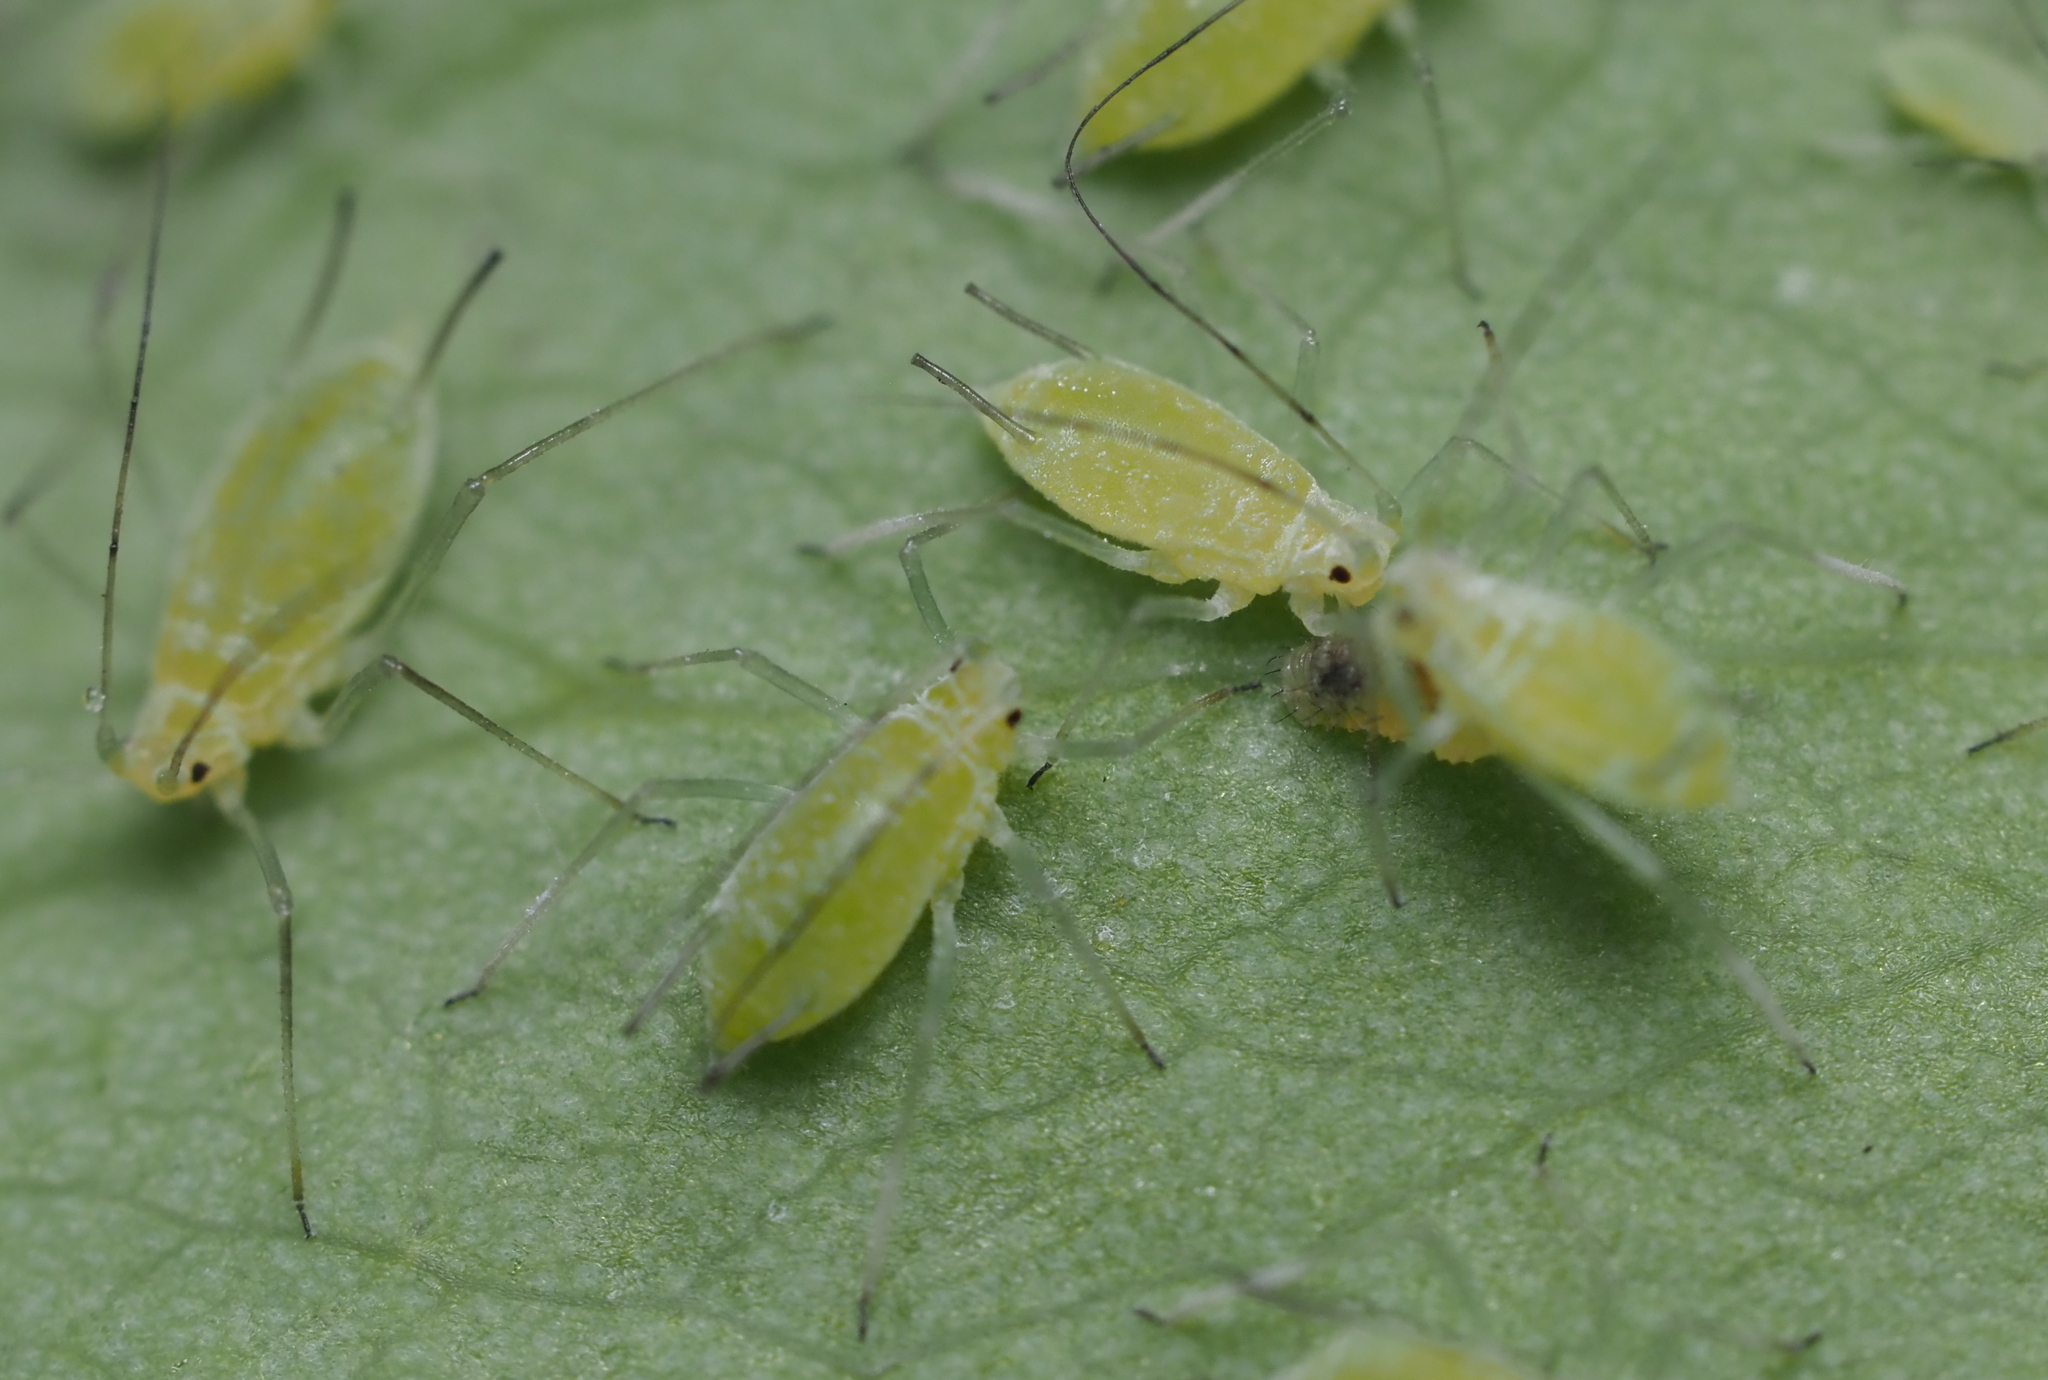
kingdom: Animalia
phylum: Arthropoda
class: Insecta
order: Hemiptera
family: Aphididae
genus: Illinoia
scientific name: Illinoia liriodendri
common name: Tuliptree aphid
